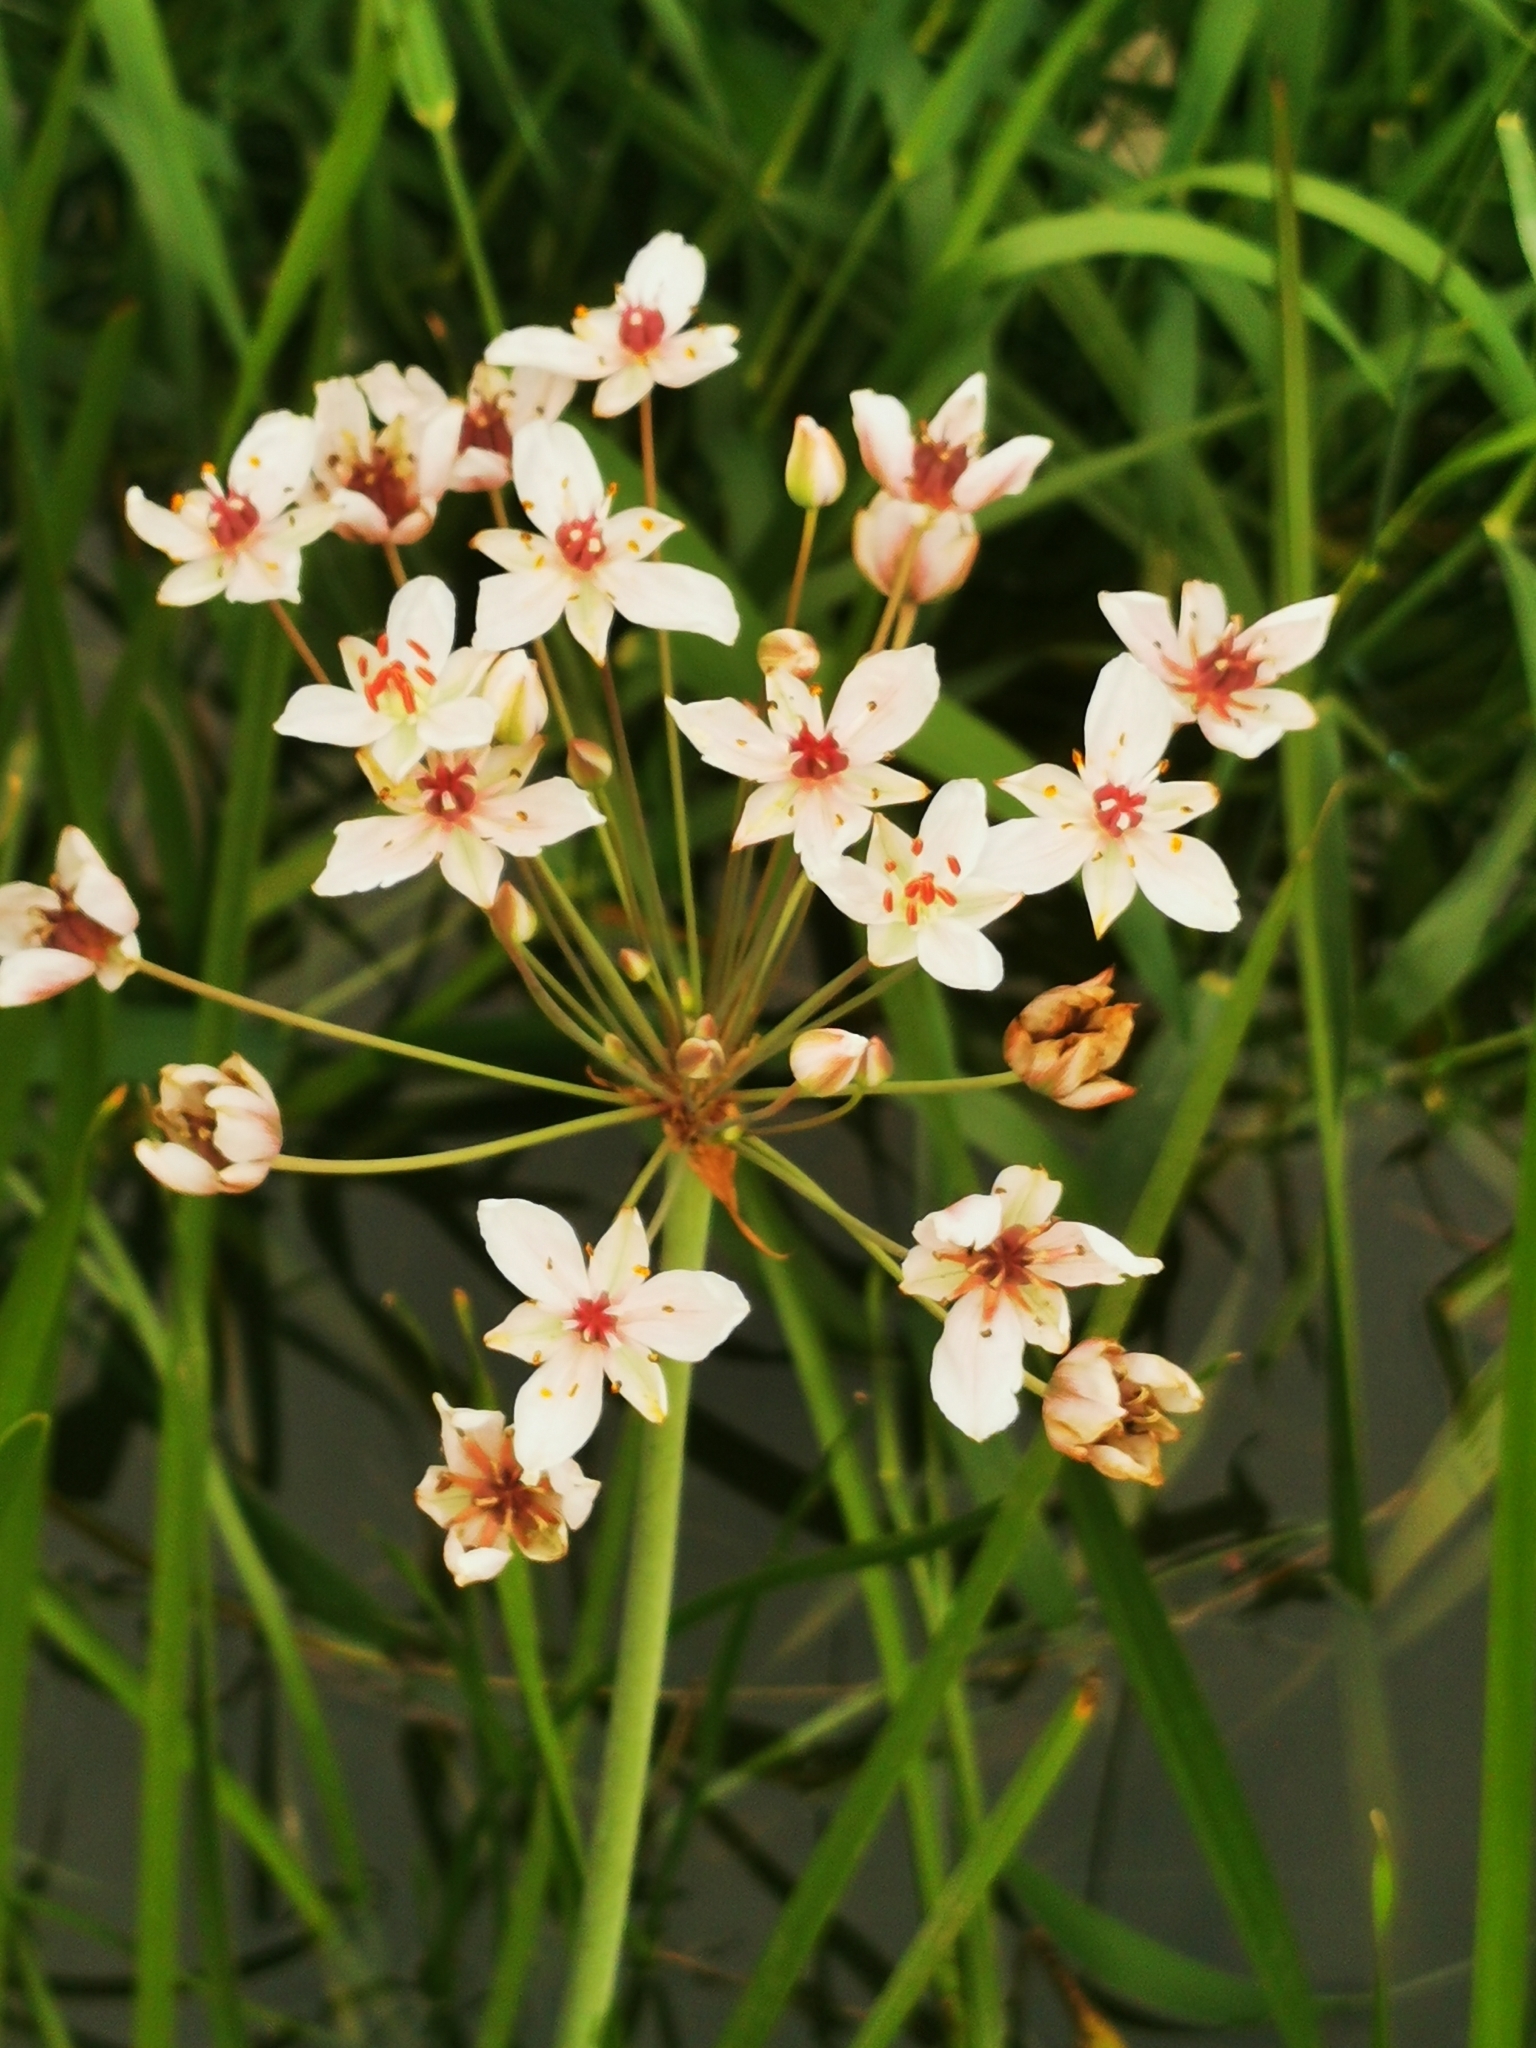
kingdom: Plantae
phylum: Tracheophyta
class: Liliopsida
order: Alismatales
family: Butomaceae
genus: Butomus
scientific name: Butomus umbellatus
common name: Flowering-rush
